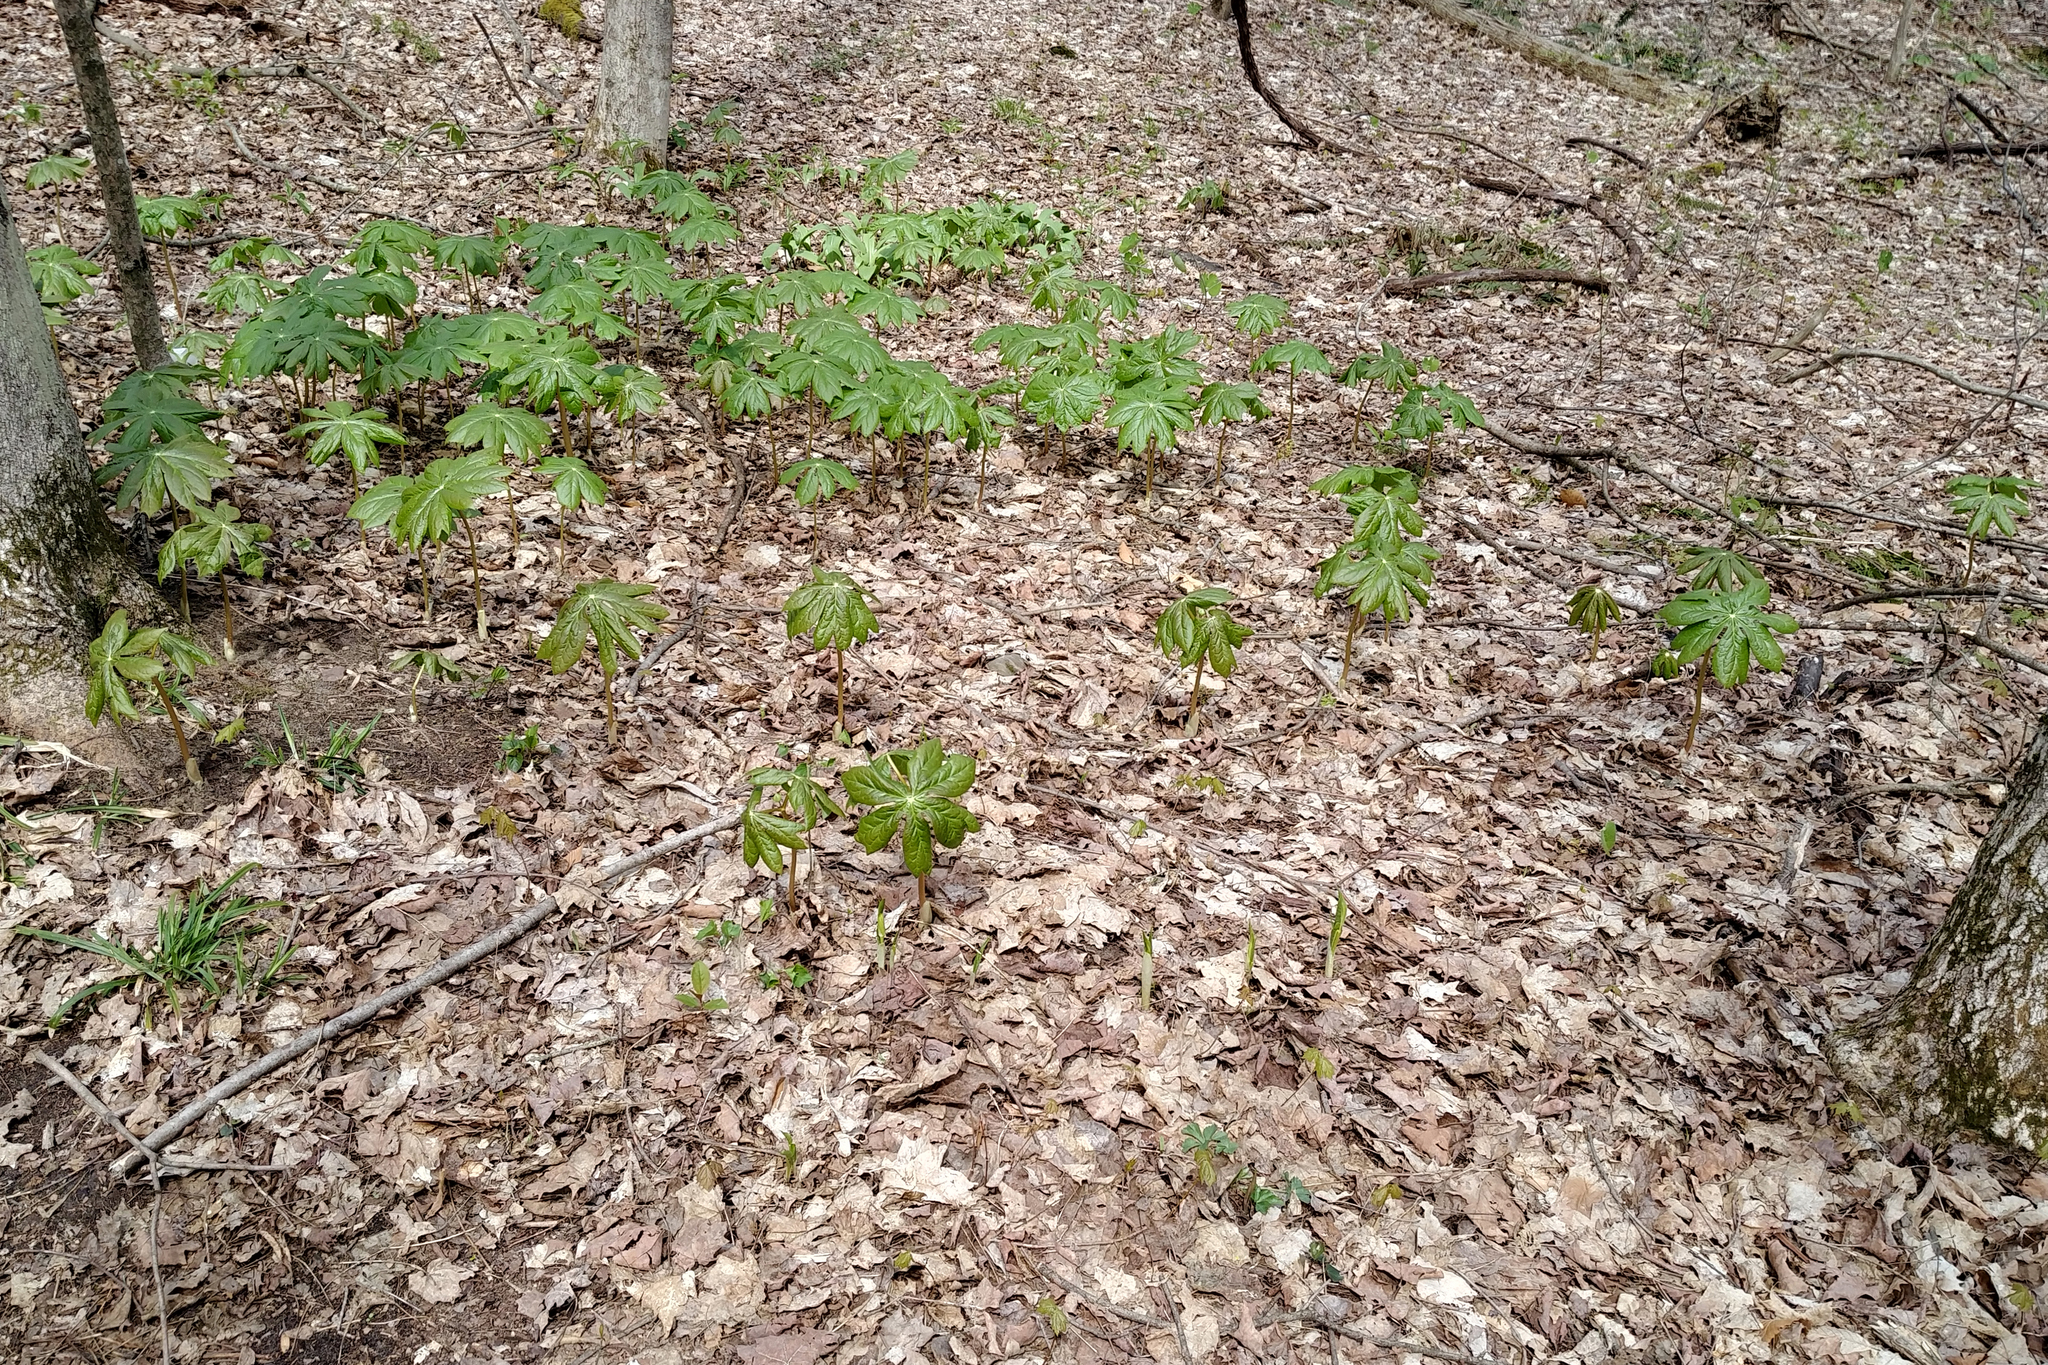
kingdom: Plantae
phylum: Tracheophyta
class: Magnoliopsida
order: Ranunculales
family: Berberidaceae
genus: Podophyllum
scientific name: Podophyllum peltatum
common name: Wild mandrake
